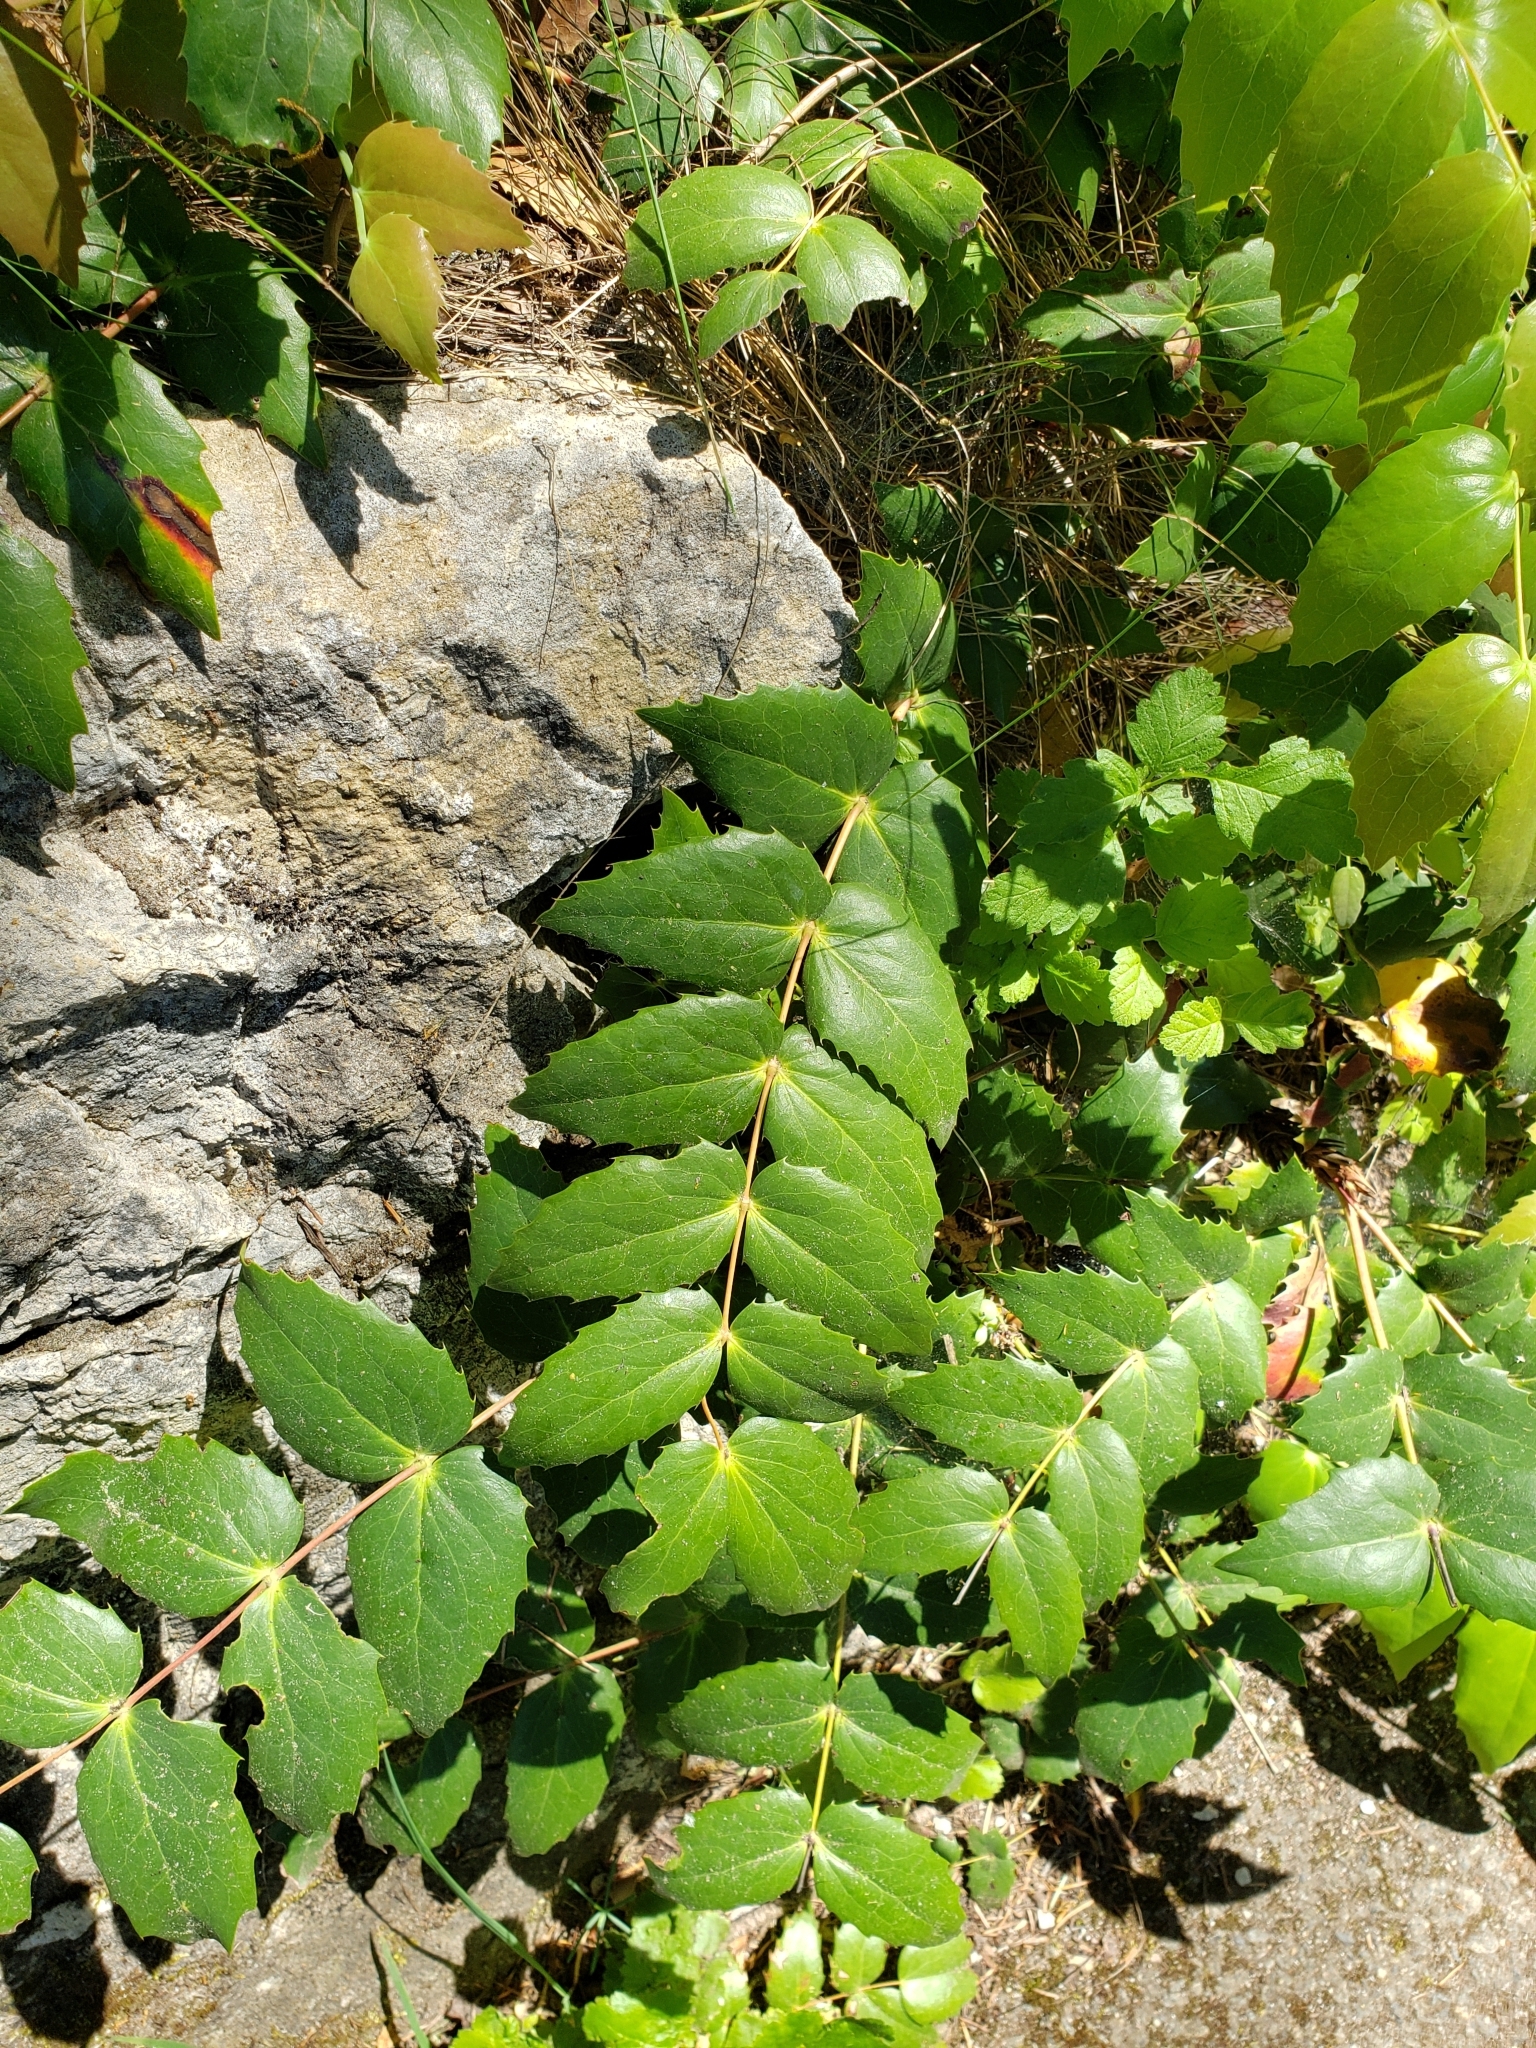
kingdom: Plantae
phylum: Tracheophyta
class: Magnoliopsida
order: Ranunculales
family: Berberidaceae
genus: Mahonia
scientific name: Mahonia nervosa
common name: Cascade oregon-grape
